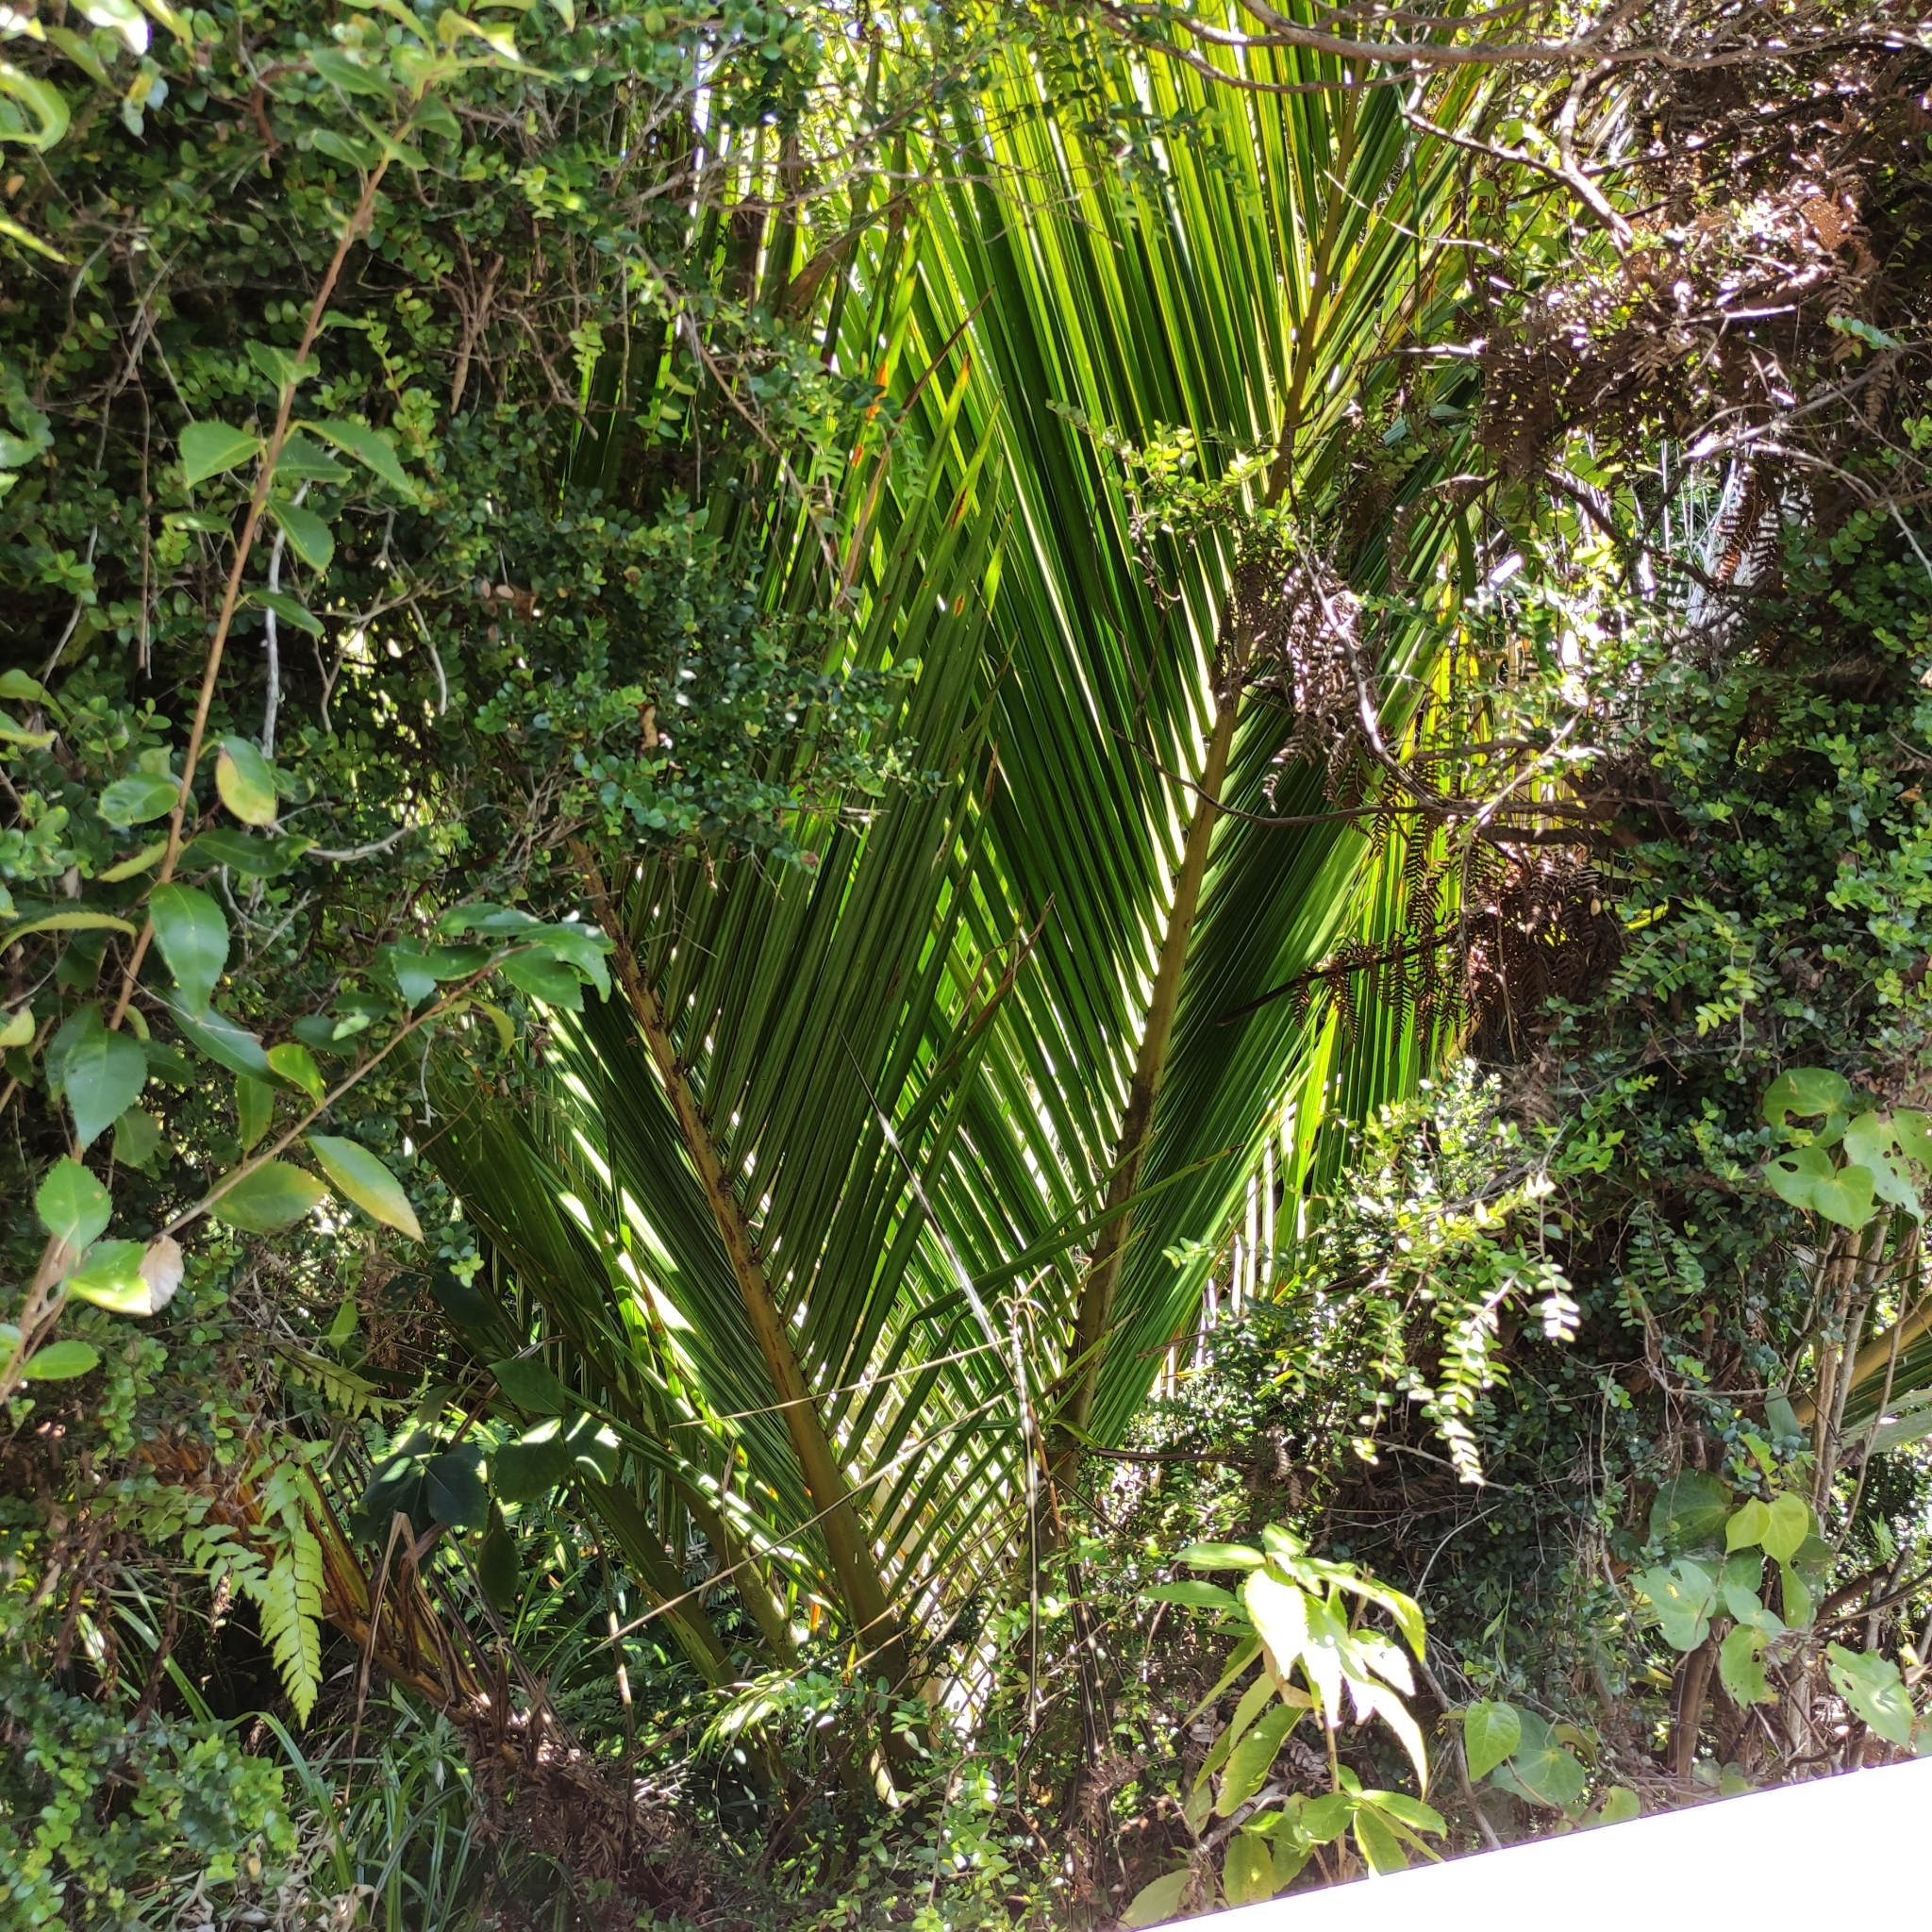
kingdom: Plantae
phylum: Tracheophyta
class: Liliopsida
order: Arecales
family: Arecaceae
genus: Rhopalostylis
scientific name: Rhopalostylis sapida
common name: Feather-duster palm
